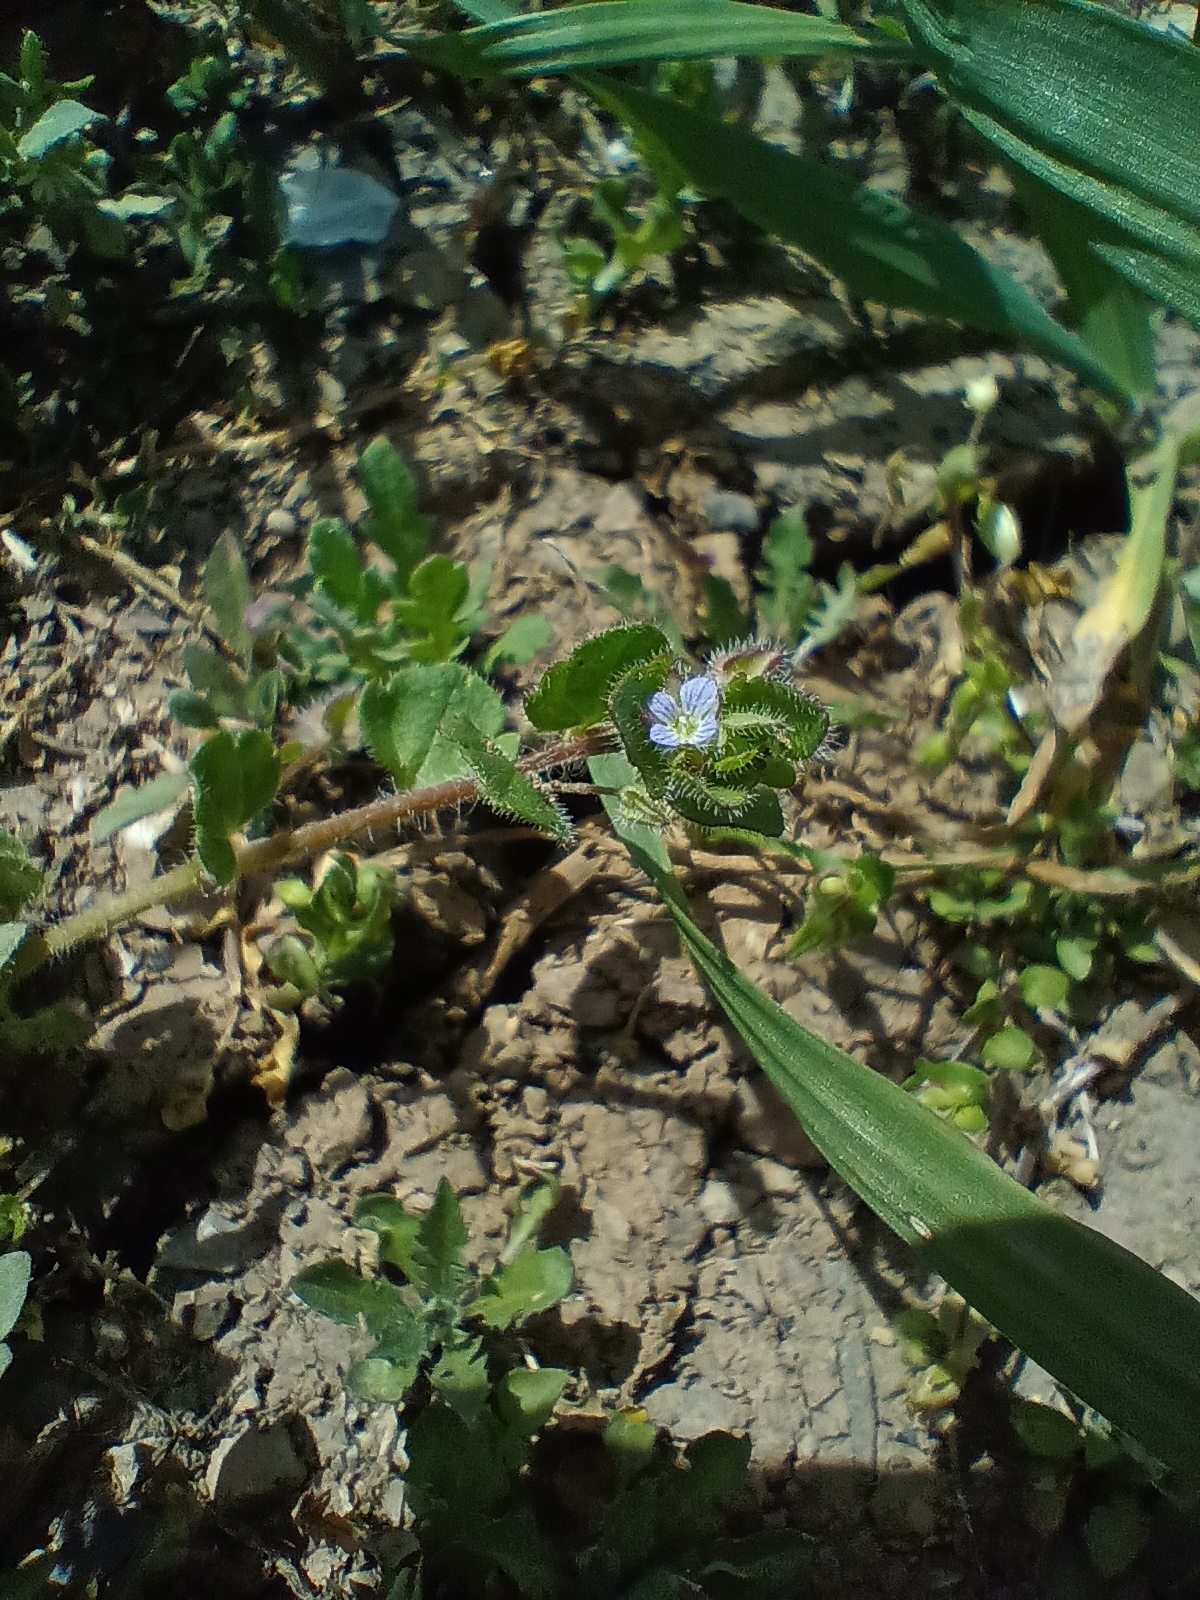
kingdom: Plantae
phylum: Tracheophyta
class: Magnoliopsida
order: Lamiales
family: Plantaginaceae
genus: Veronica
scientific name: Veronica sublobata
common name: False ivy-leaved speedwell
